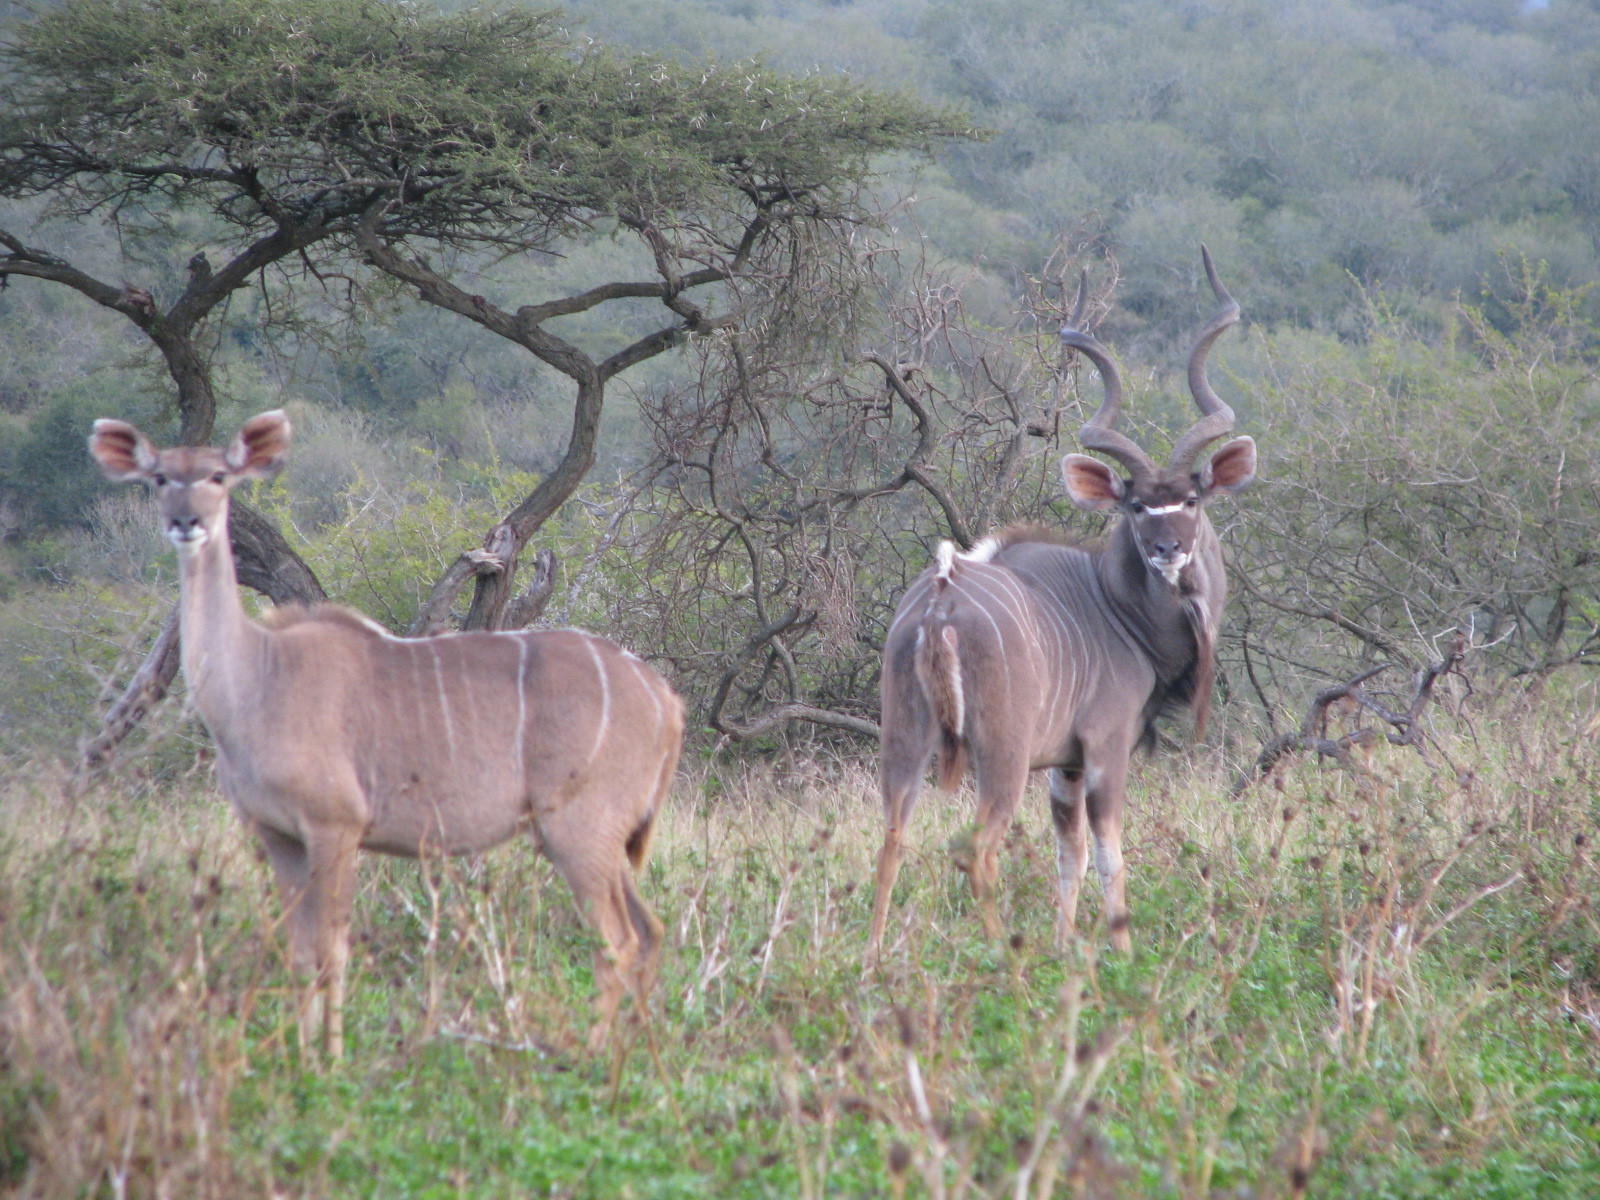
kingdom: Animalia
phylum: Chordata
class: Mammalia
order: Artiodactyla
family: Bovidae
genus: Tragelaphus
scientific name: Tragelaphus strepsiceros
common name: Greater kudu
